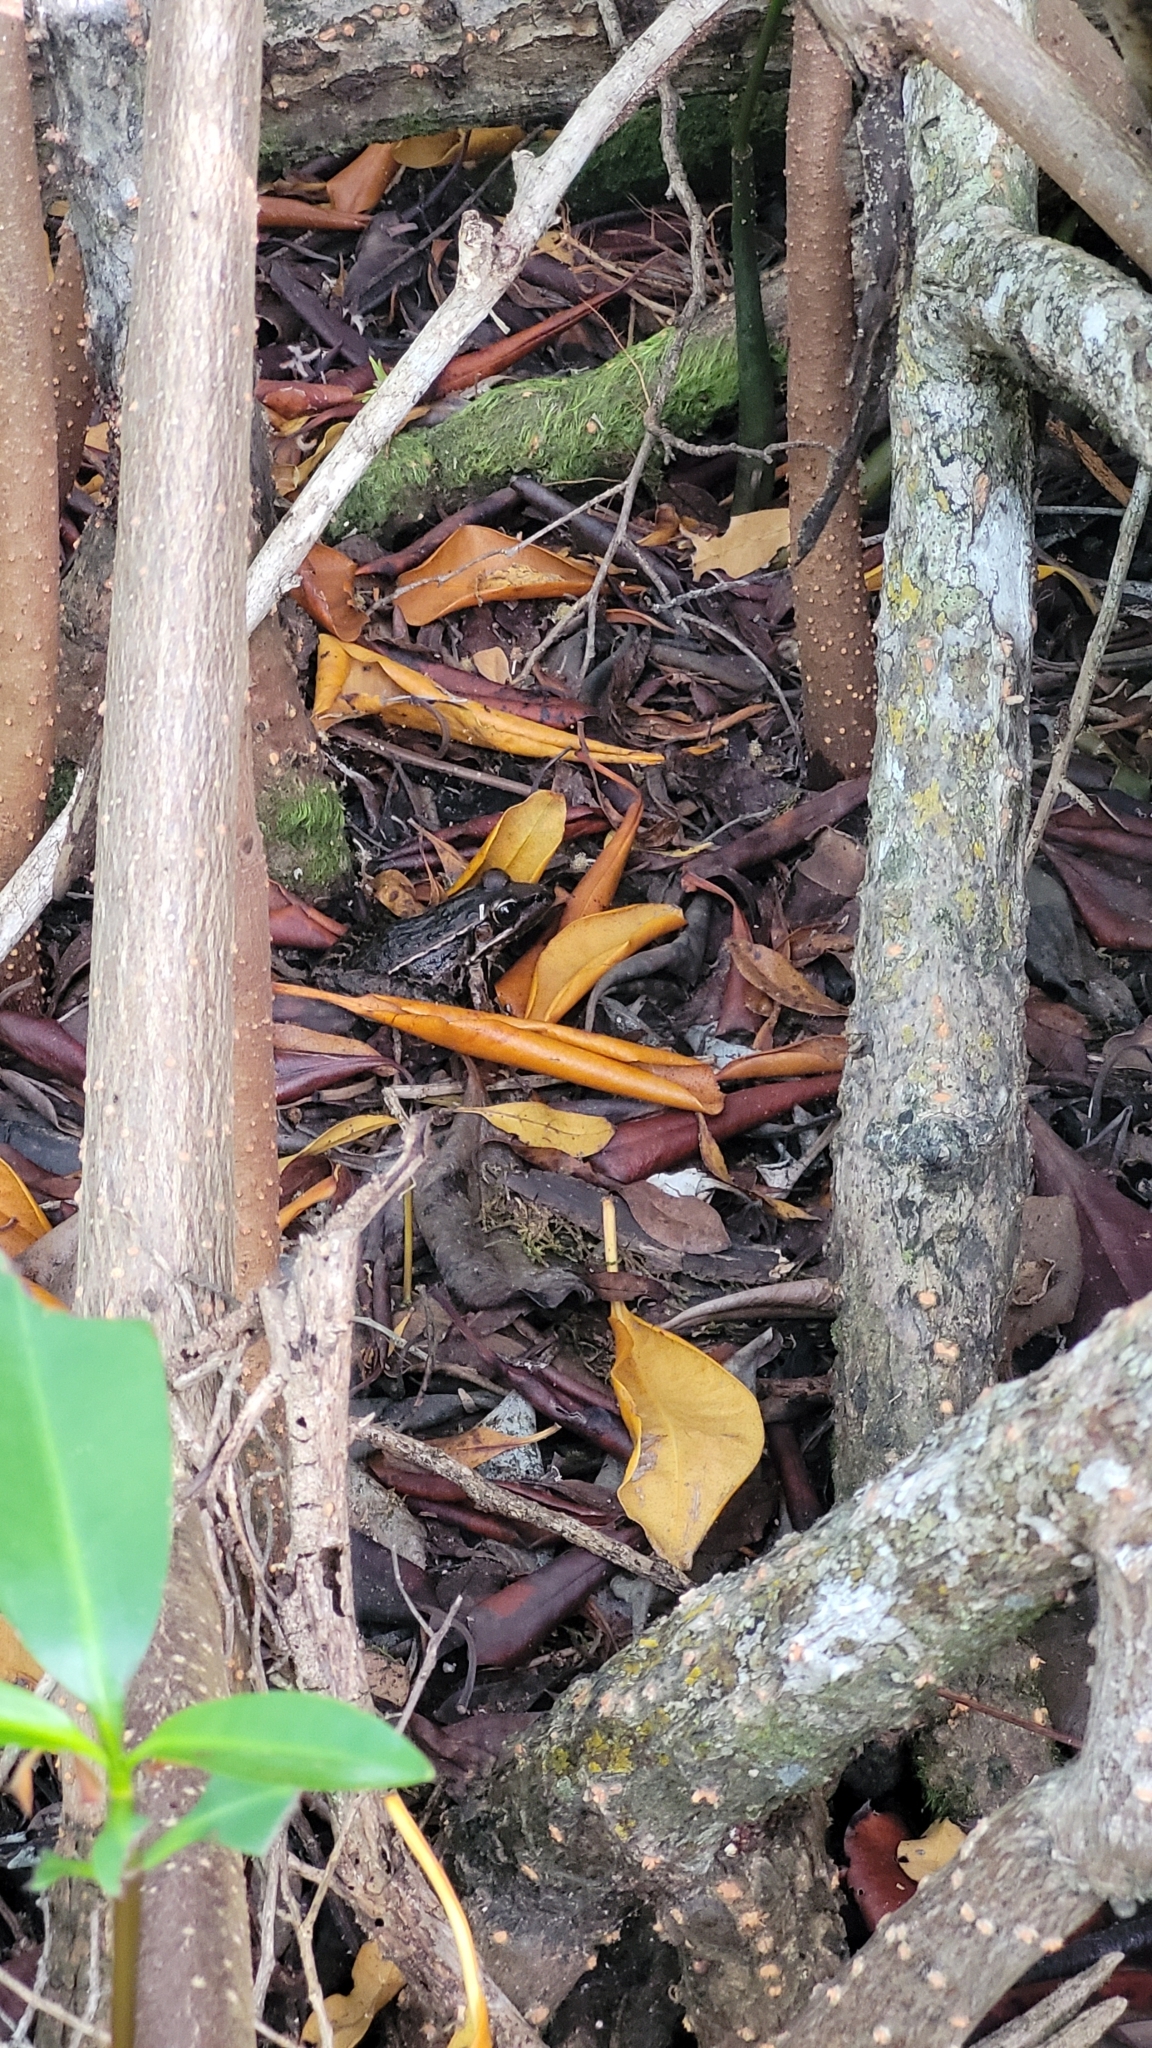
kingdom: Animalia
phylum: Chordata
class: Amphibia
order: Anura
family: Ranidae
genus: Lithobates
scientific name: Lithobates brownorum
